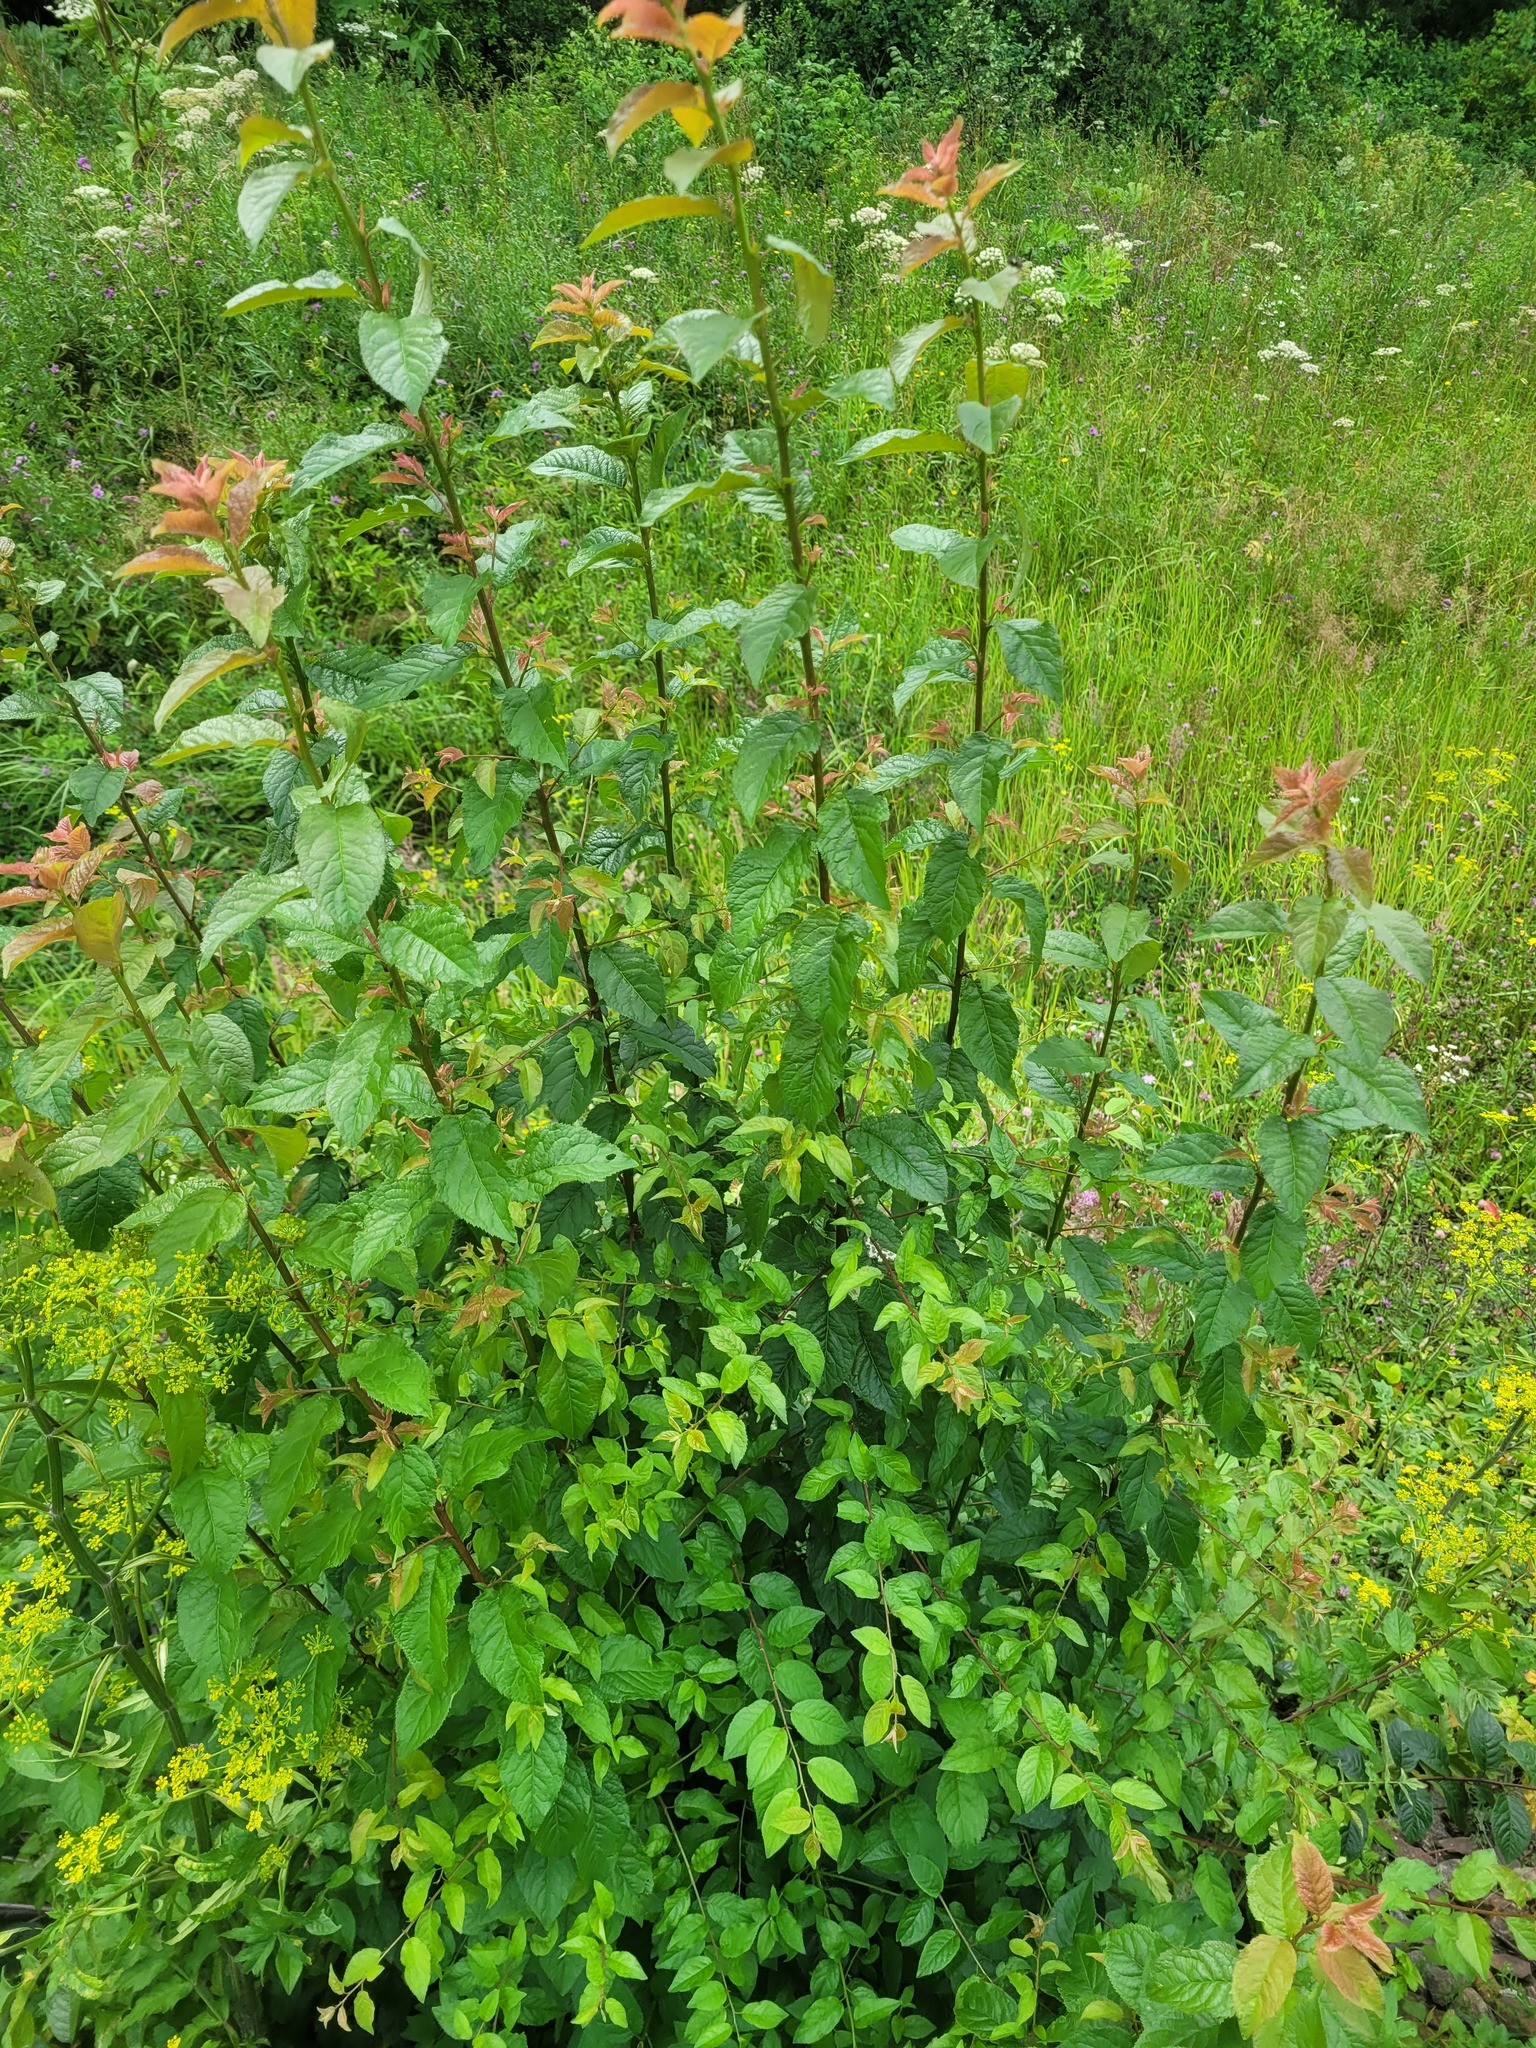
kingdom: Plantae
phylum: Tracheophyta
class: Magnoliopsida
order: Rosales
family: Rosaceae
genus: Prunus
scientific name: Prunus cerasifera
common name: Cherry plum
